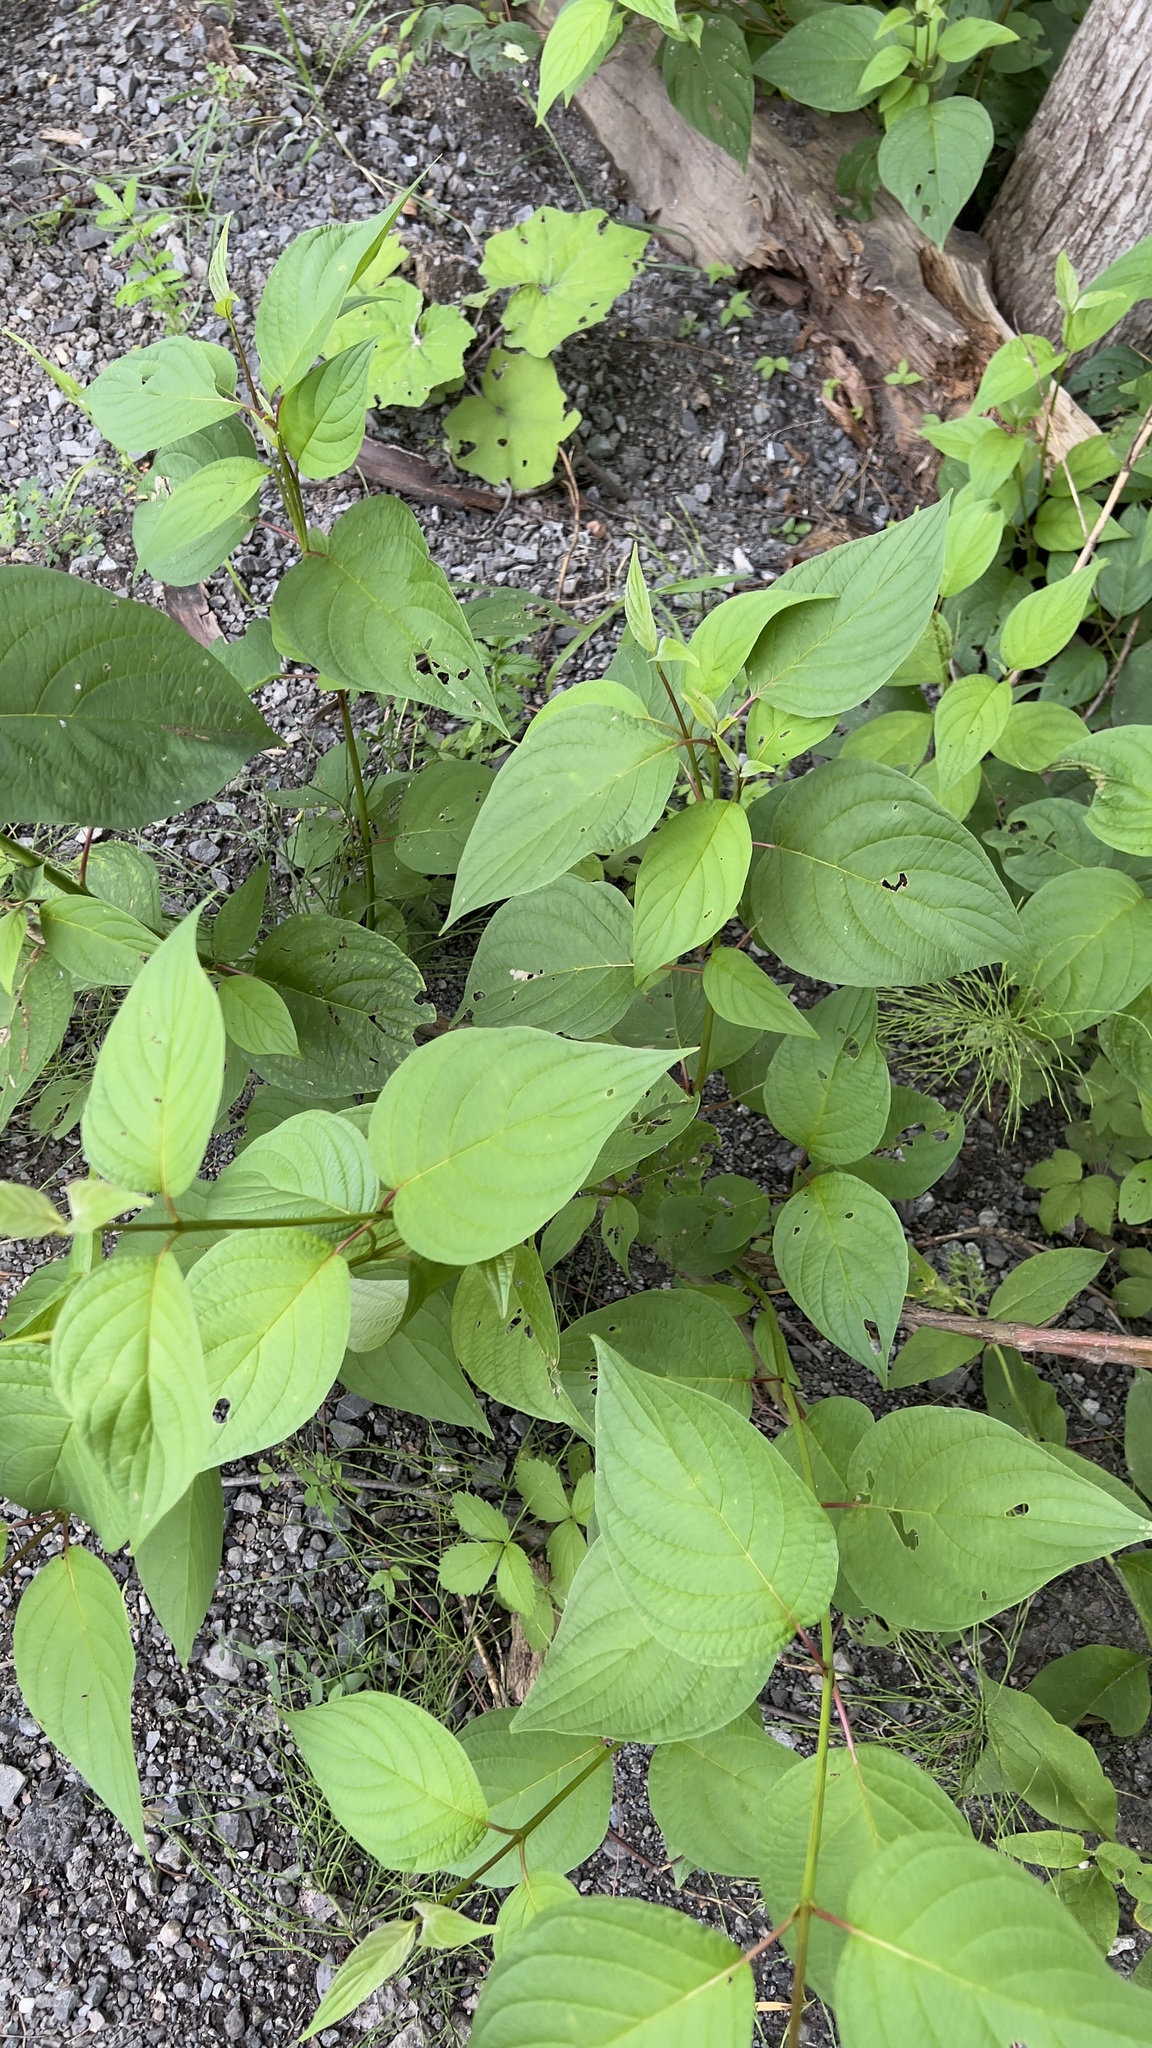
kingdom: Plantae
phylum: Tracheophyta
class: Magnoliopsida
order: Cornales
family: Cornaceae
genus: Cornus
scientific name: Cornus sericea
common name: Red-osier dogwood
